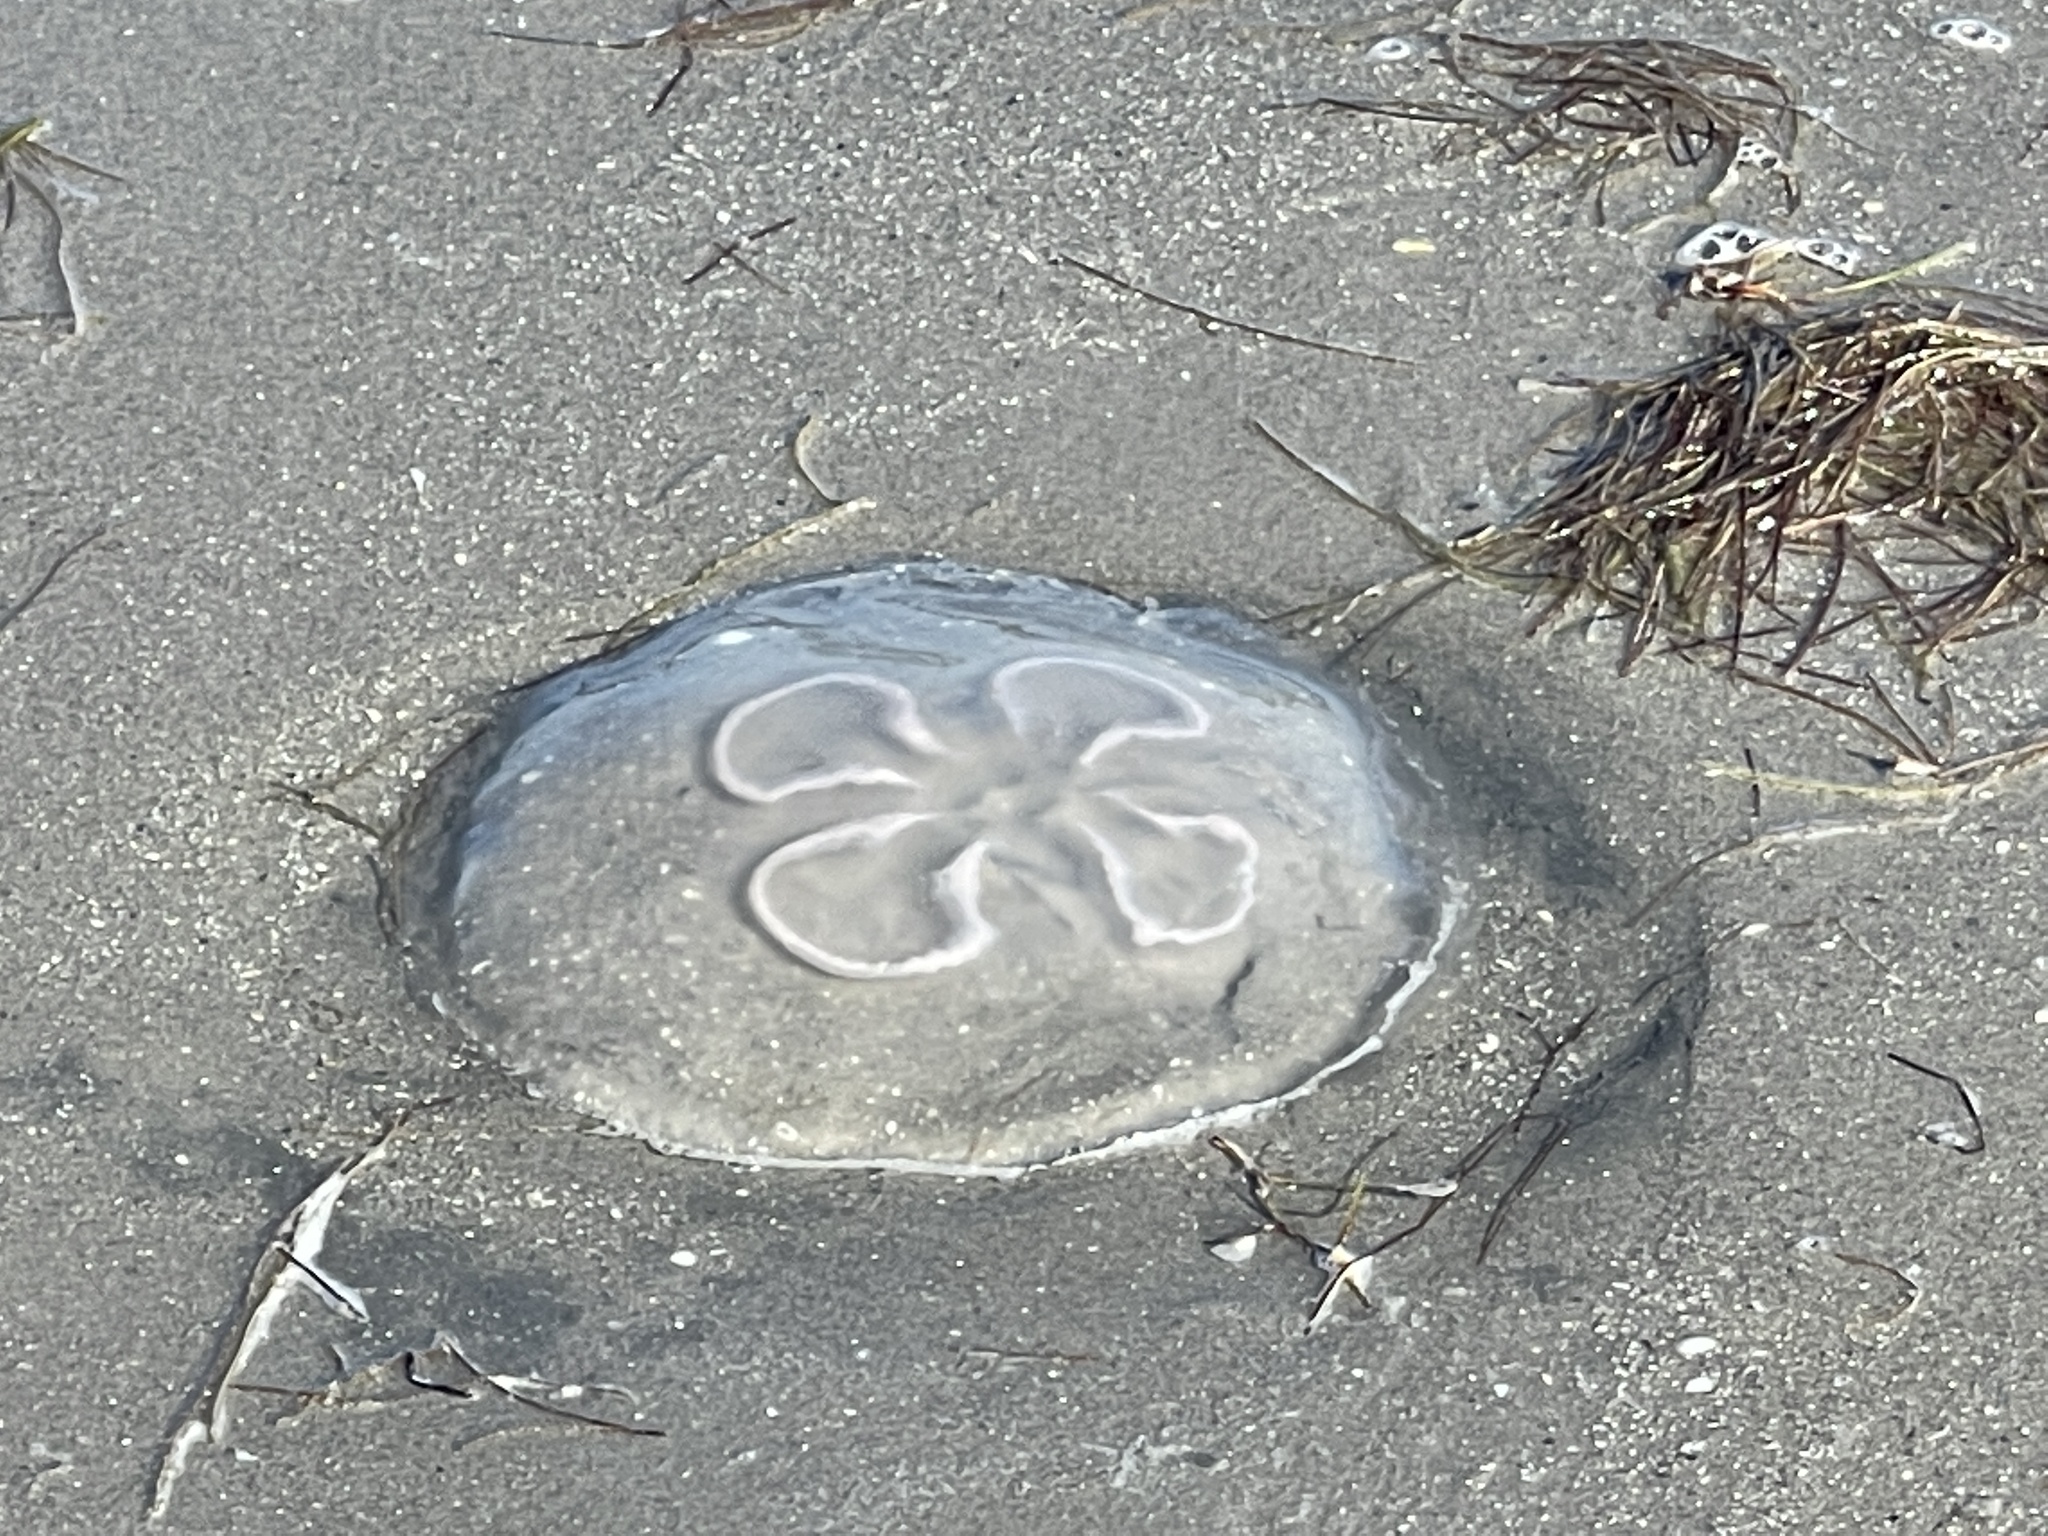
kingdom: Animalia
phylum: Cnidaria
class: Scyphozoa
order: Semaeostomeae
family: Ulmaridae
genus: Aurelia
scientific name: Aurelia marginalis
